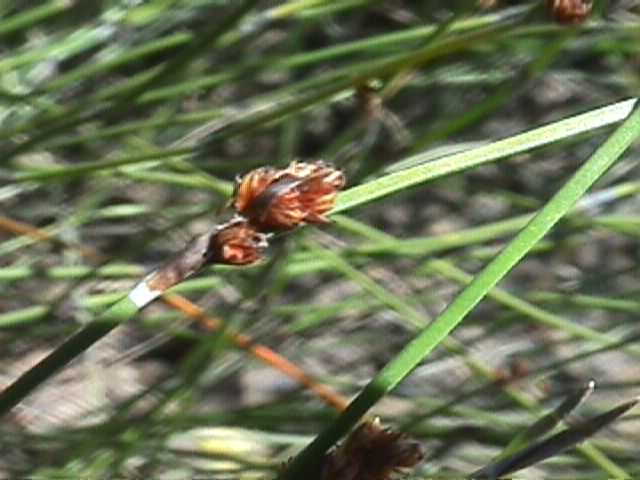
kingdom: Plantae
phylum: Tracheophyta
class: Liliopsida
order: Poales
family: Cyperaceae
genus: Schoenoplectus
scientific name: Schoenoplectus pungens
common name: Sharp club-rush
